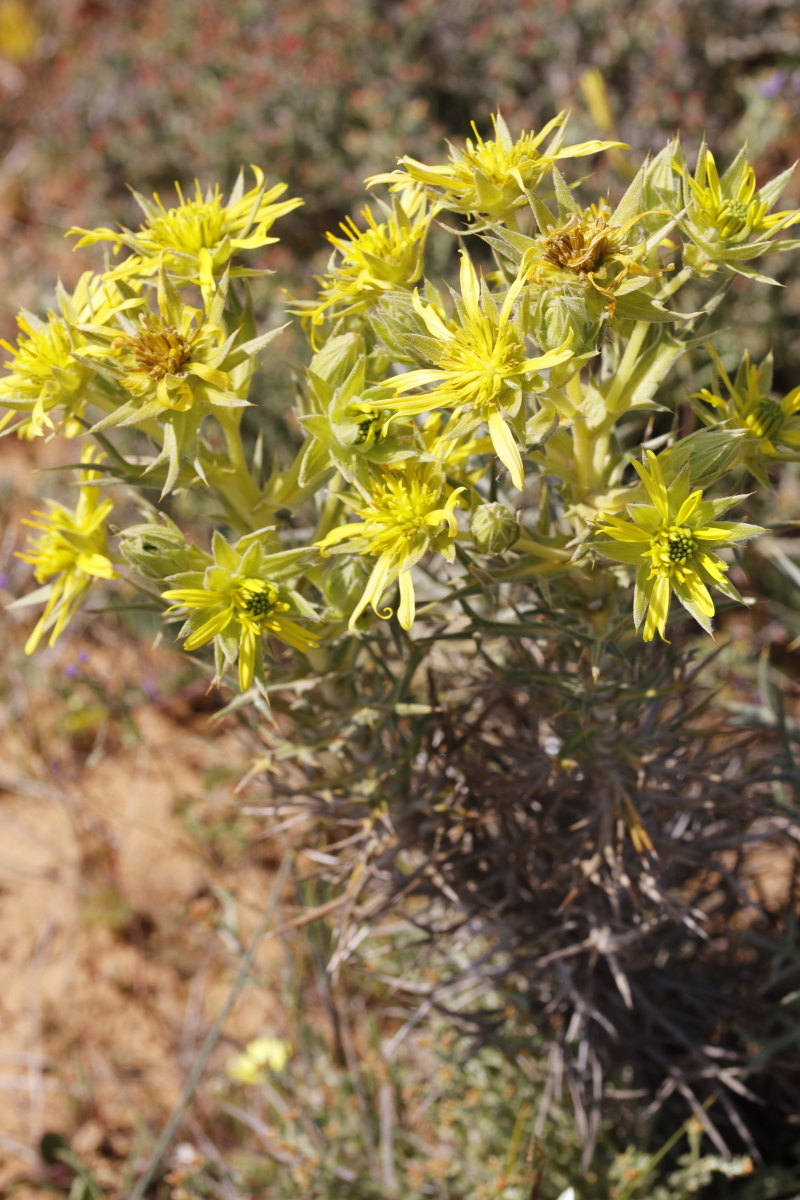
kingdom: Plantae
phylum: Tracheophyta
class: Magnoliopsida
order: Asterales
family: Asteraceae
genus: Heterorhachis
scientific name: Heterorhachis aculeata
